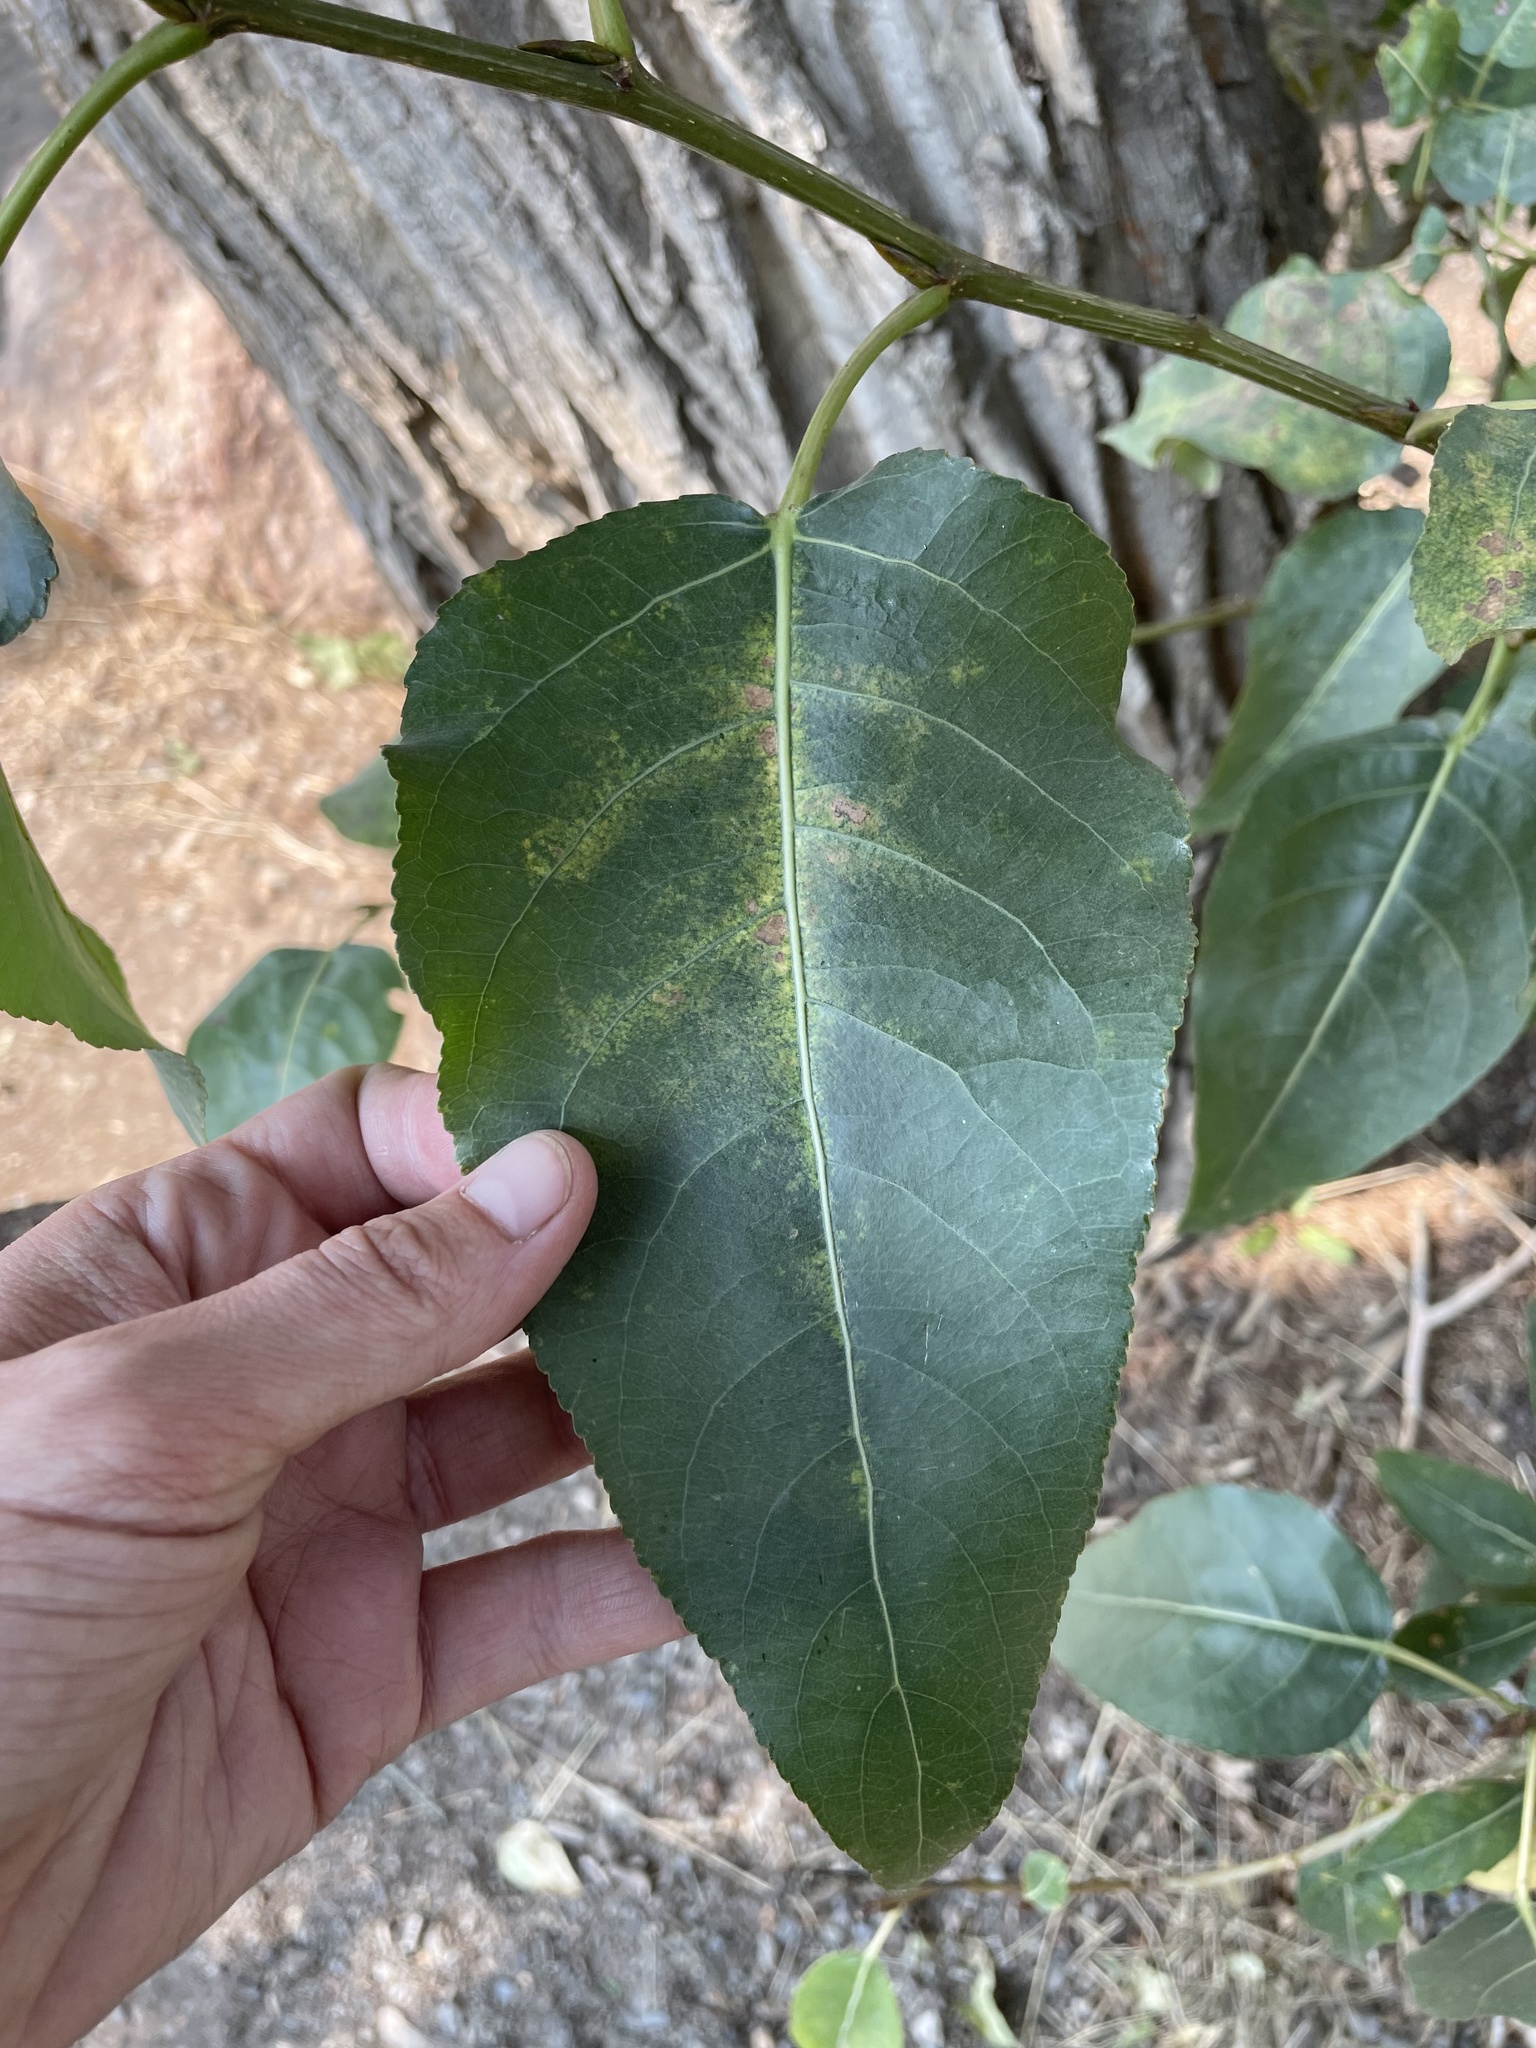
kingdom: Plantae
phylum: Tracheophyta
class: Magnoliopsida
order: Malpighiales
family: Salicaceae
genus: Populus
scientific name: Populus trichocarpa
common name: Black cottonwood
